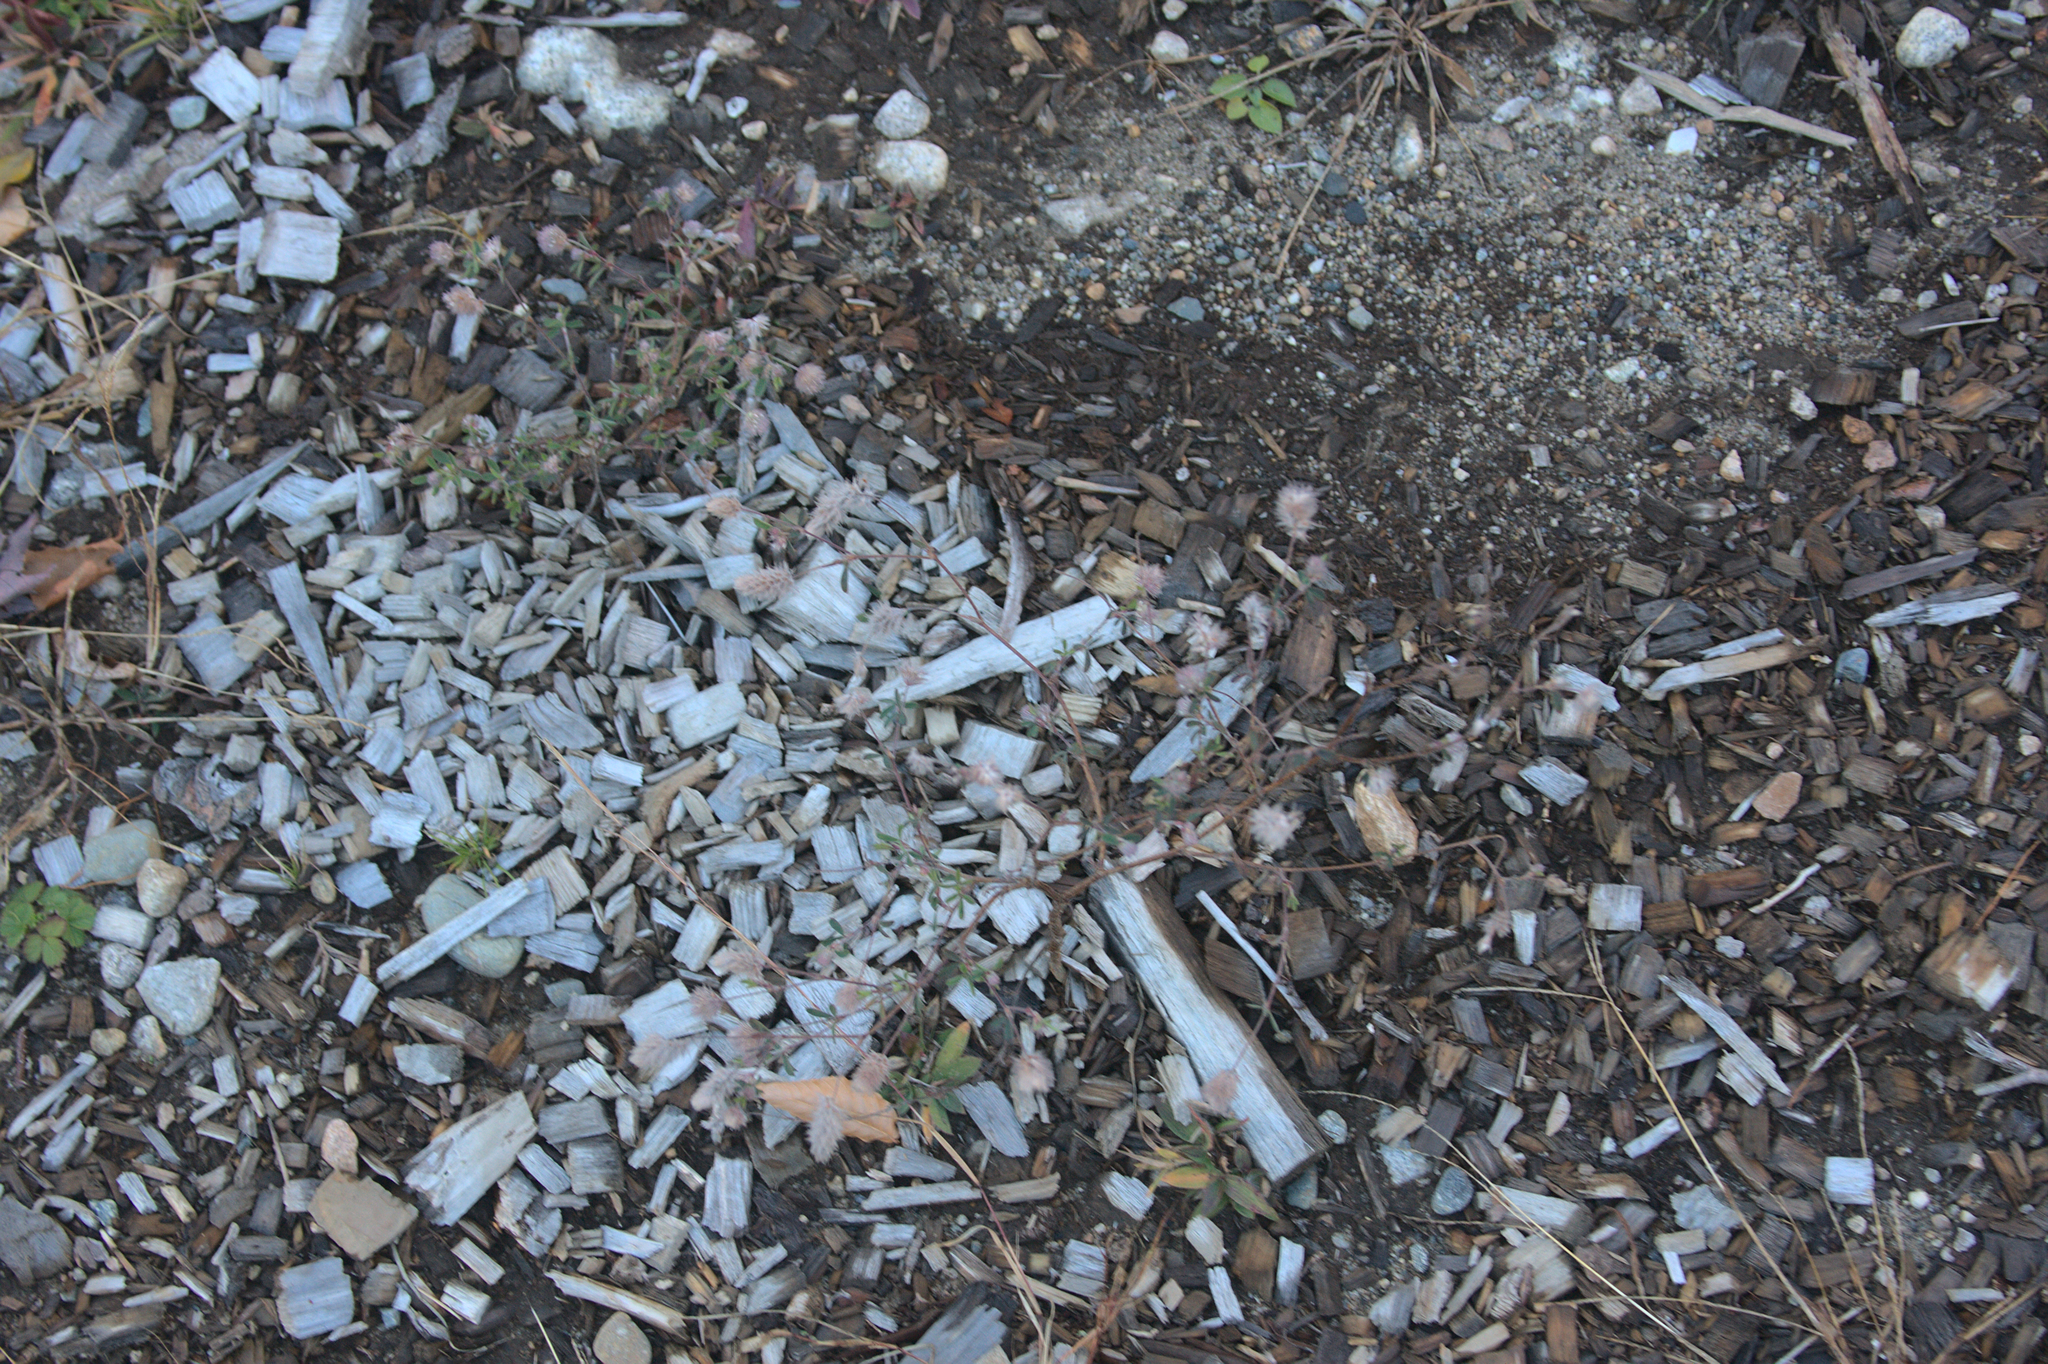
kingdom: Plantae
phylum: Tracheophyta
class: Magnoliopsida
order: Fabales
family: Fabaceae
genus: Trifolium
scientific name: Trifolium arvense
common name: Hare's-foot clover
